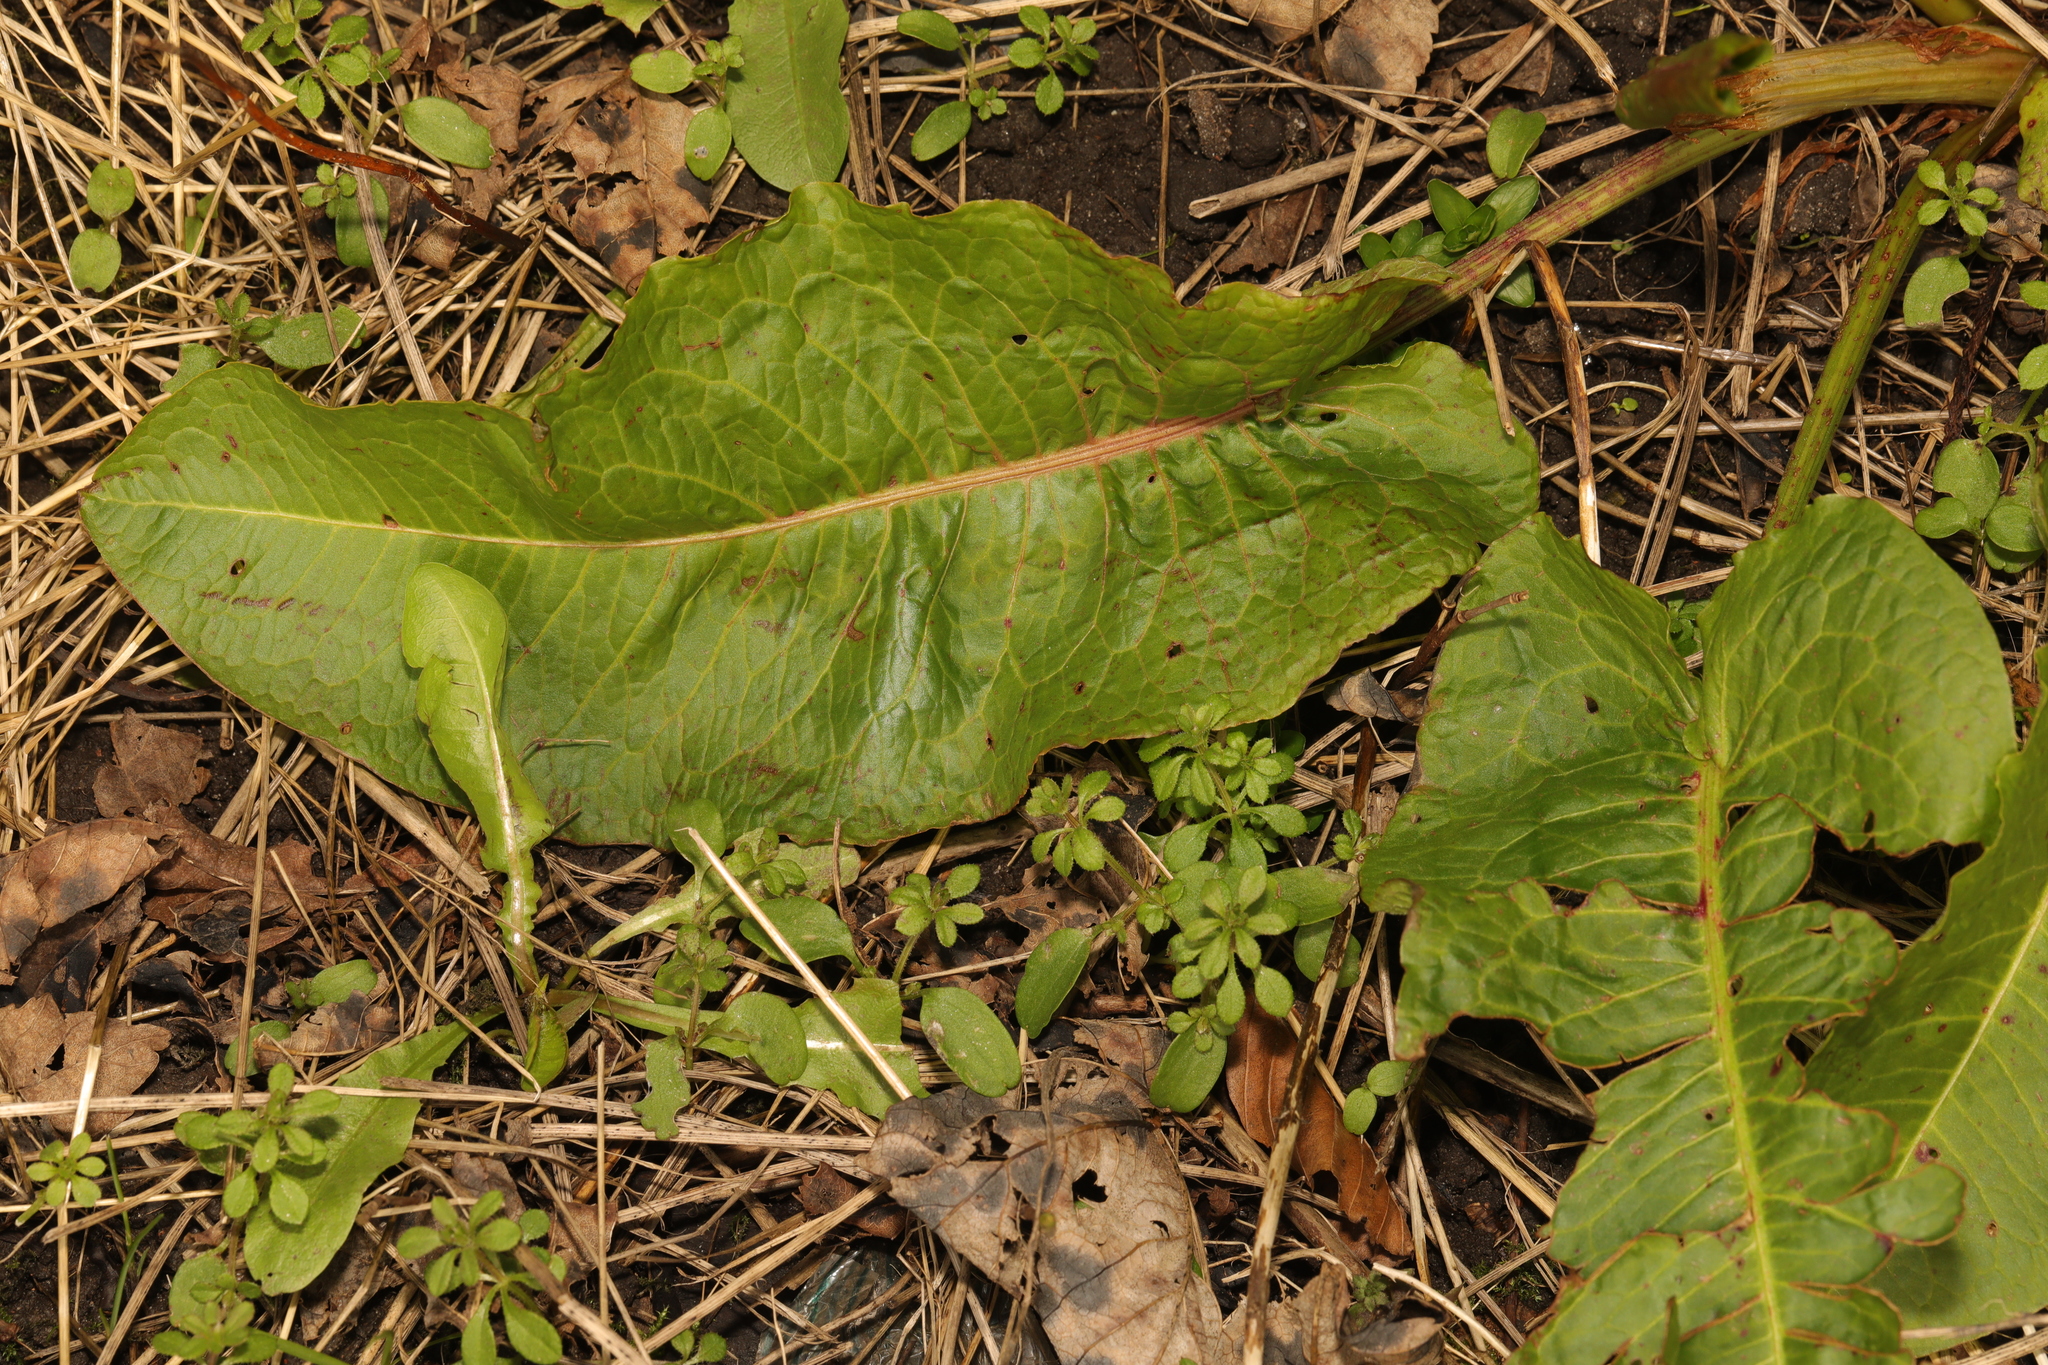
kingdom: Plantae
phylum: Tracheophyta
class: Magnoliopsida
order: Caryophyllales
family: Polygonaceae
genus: Rumex
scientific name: Rumex obtusifolius
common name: Bitter dock
